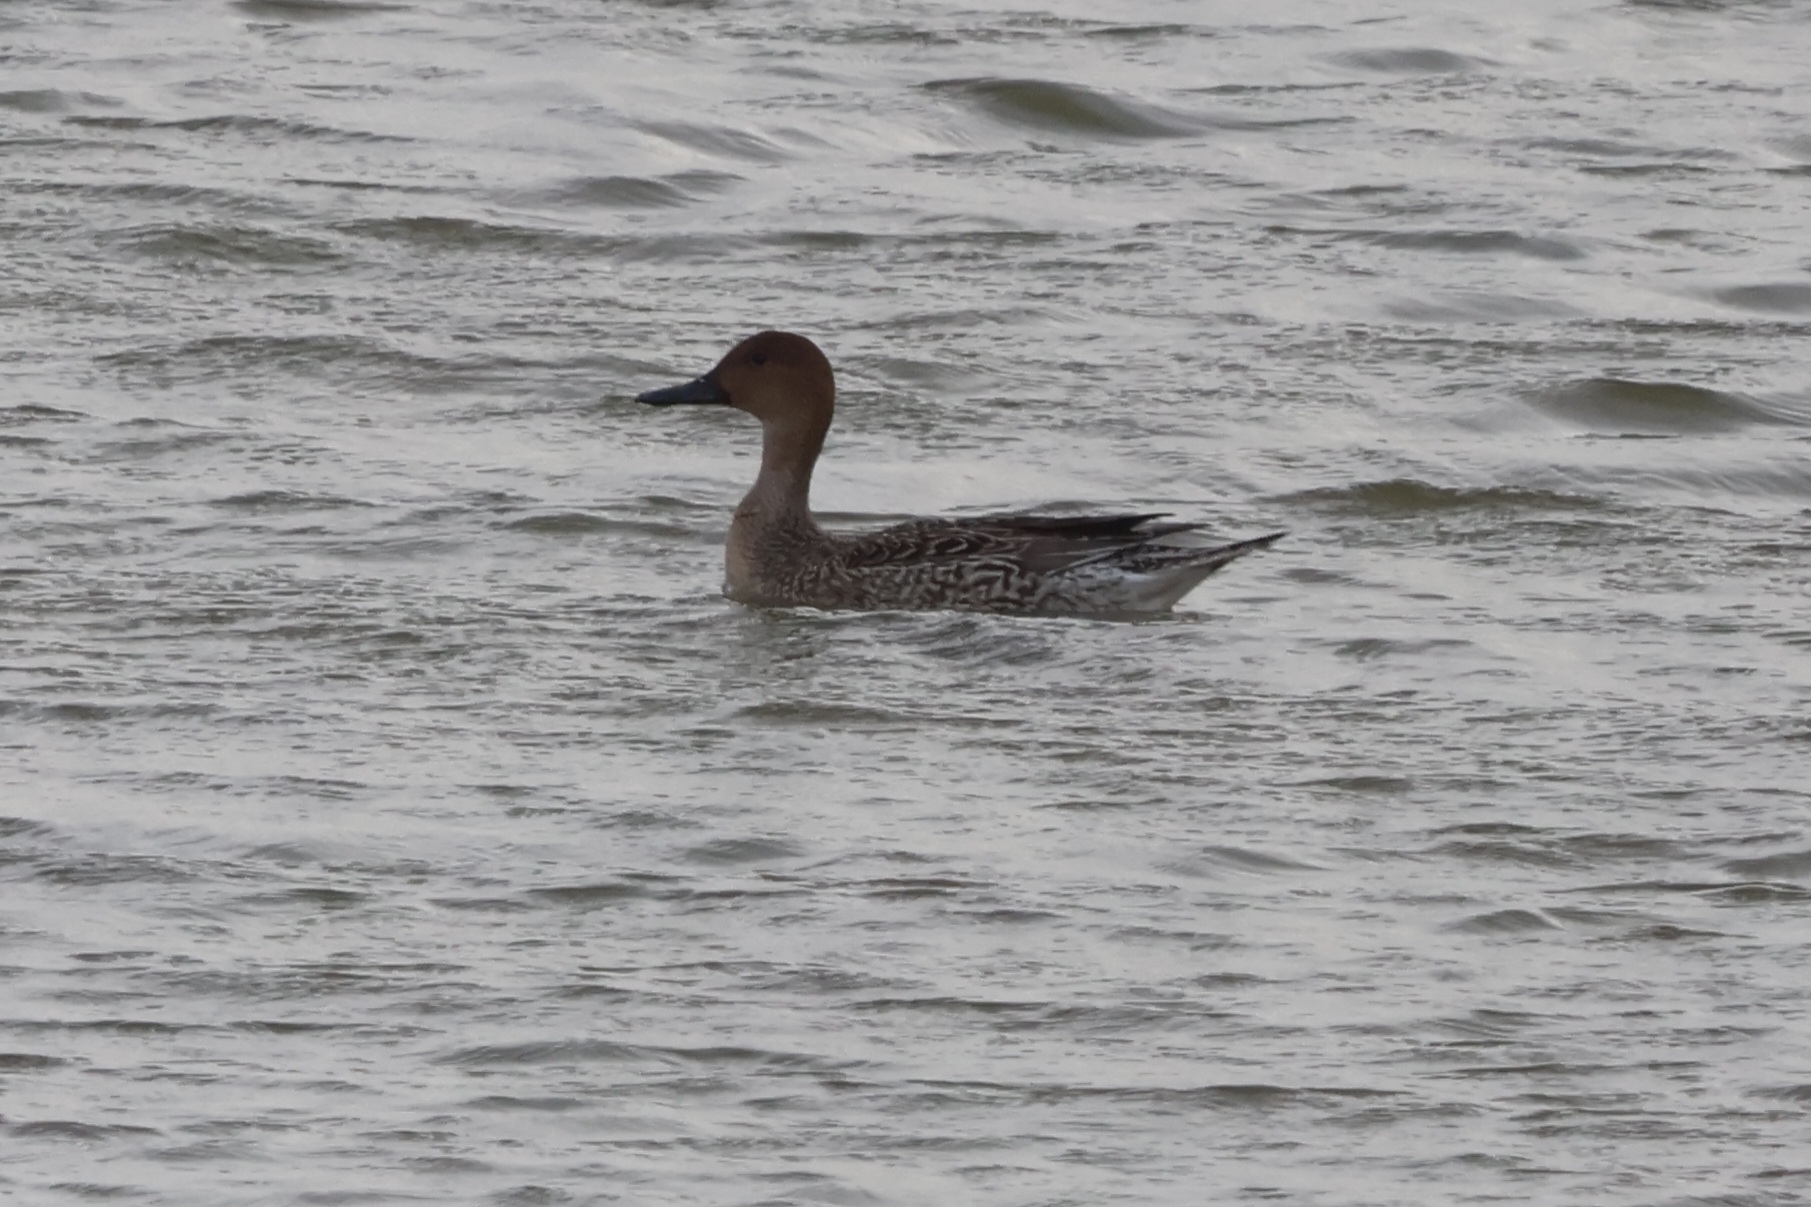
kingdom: Animalia
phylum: Chordata
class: Aves
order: Anseriformes
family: Anatidae
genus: Anas
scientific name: Anas acuta
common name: Northern pintail
